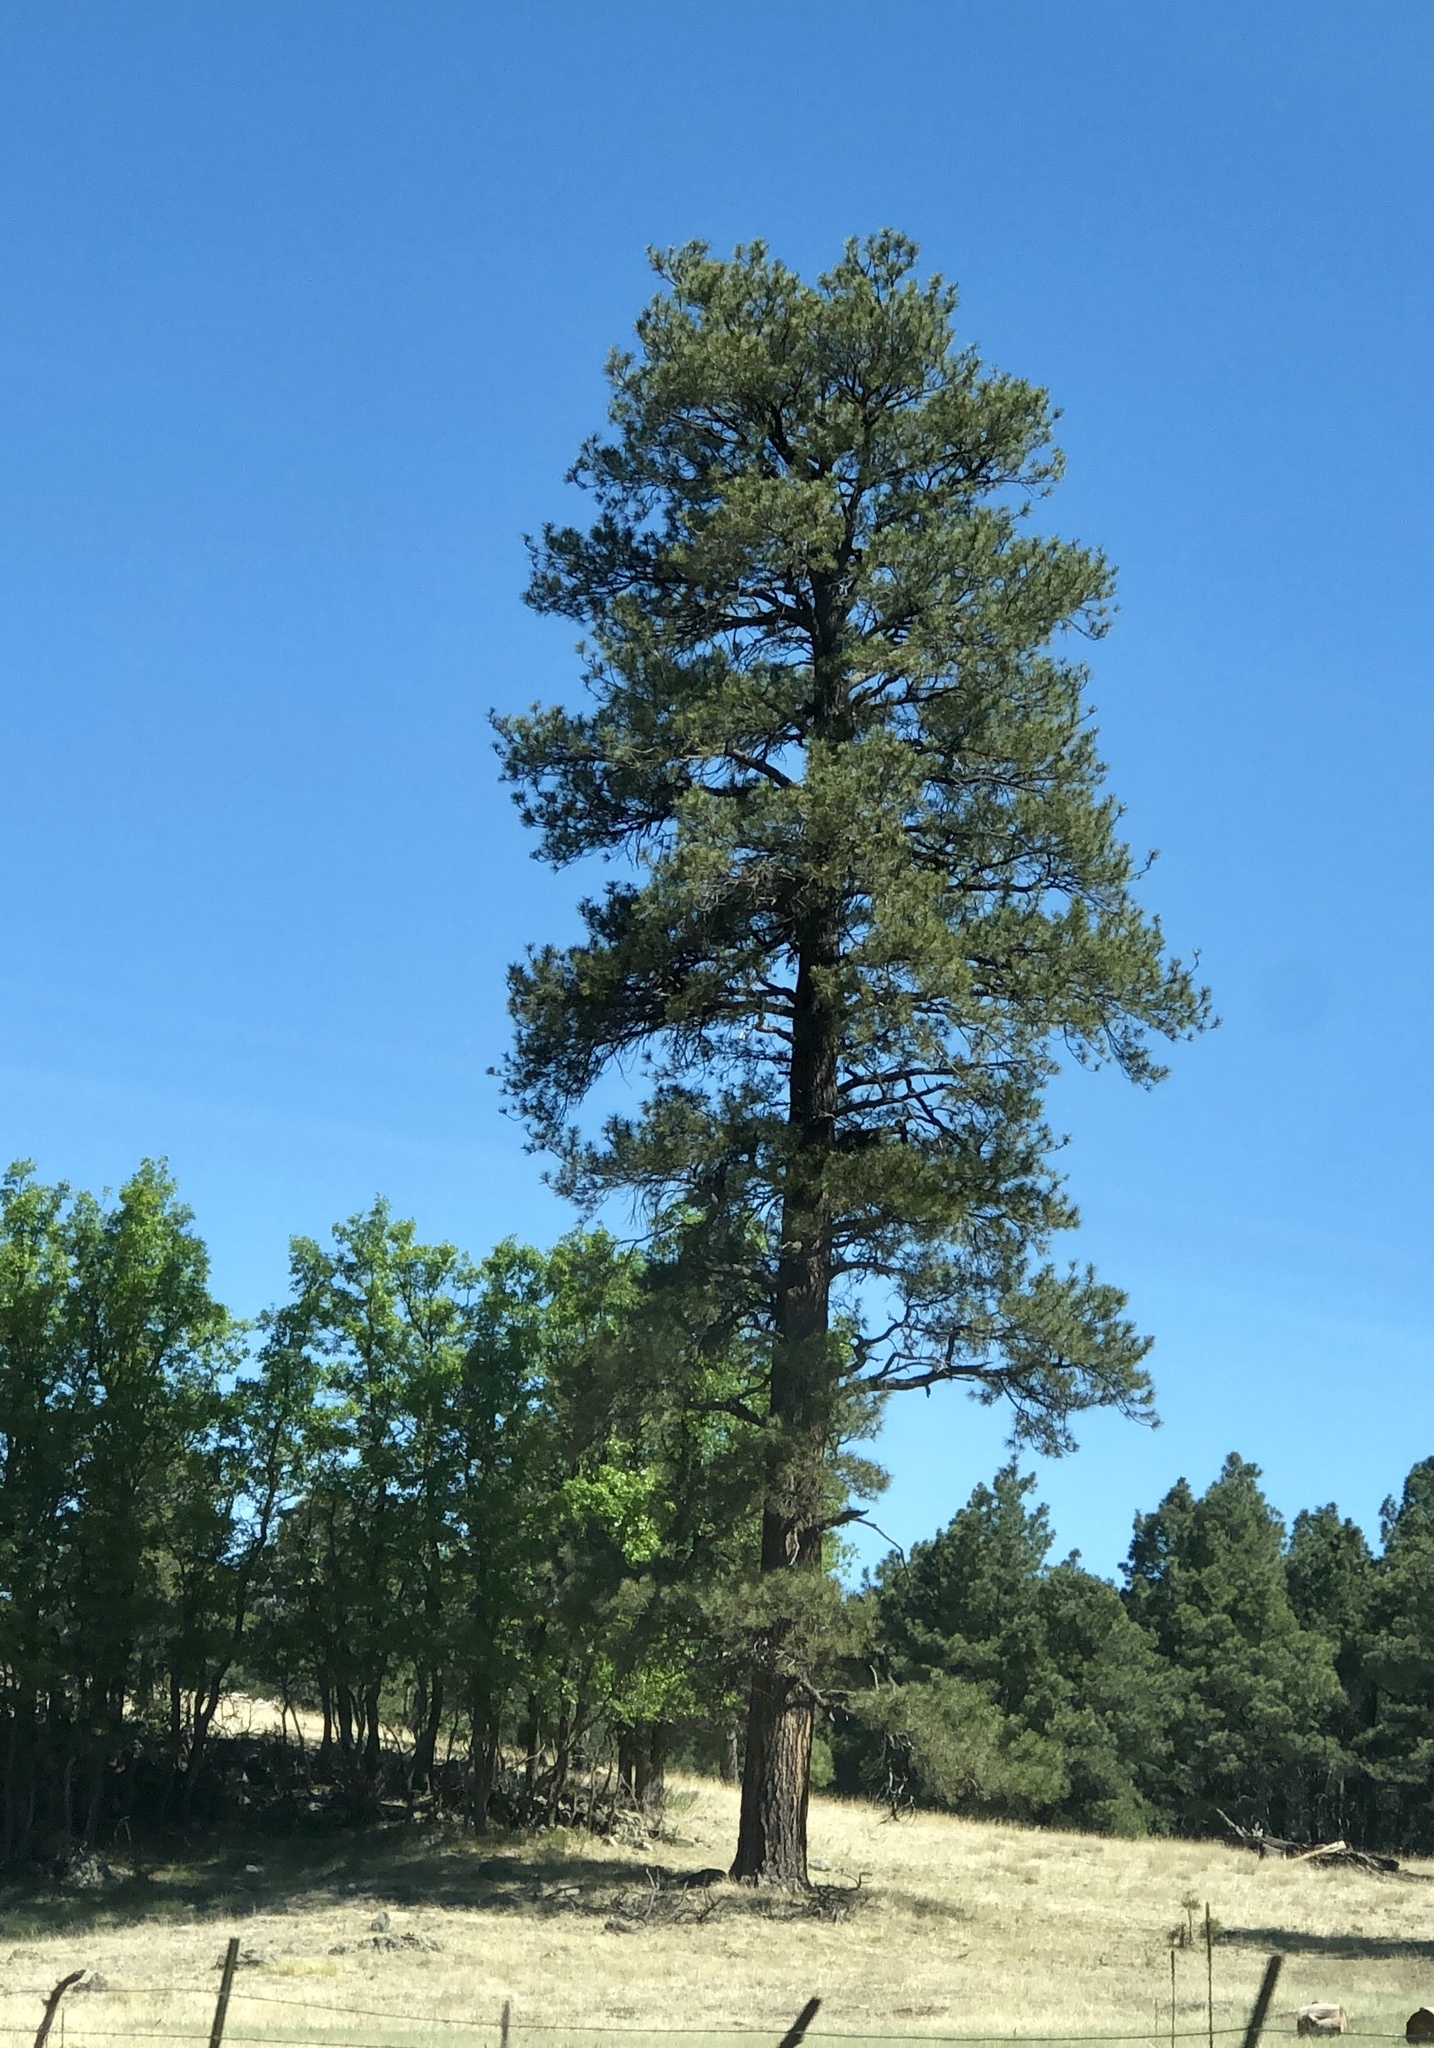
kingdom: Plantae
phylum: Tracheophyta
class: Pinopsida
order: Pinales
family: Pinaceae
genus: Pinus
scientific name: Pinus ponderosa
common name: Western yellow-pine
